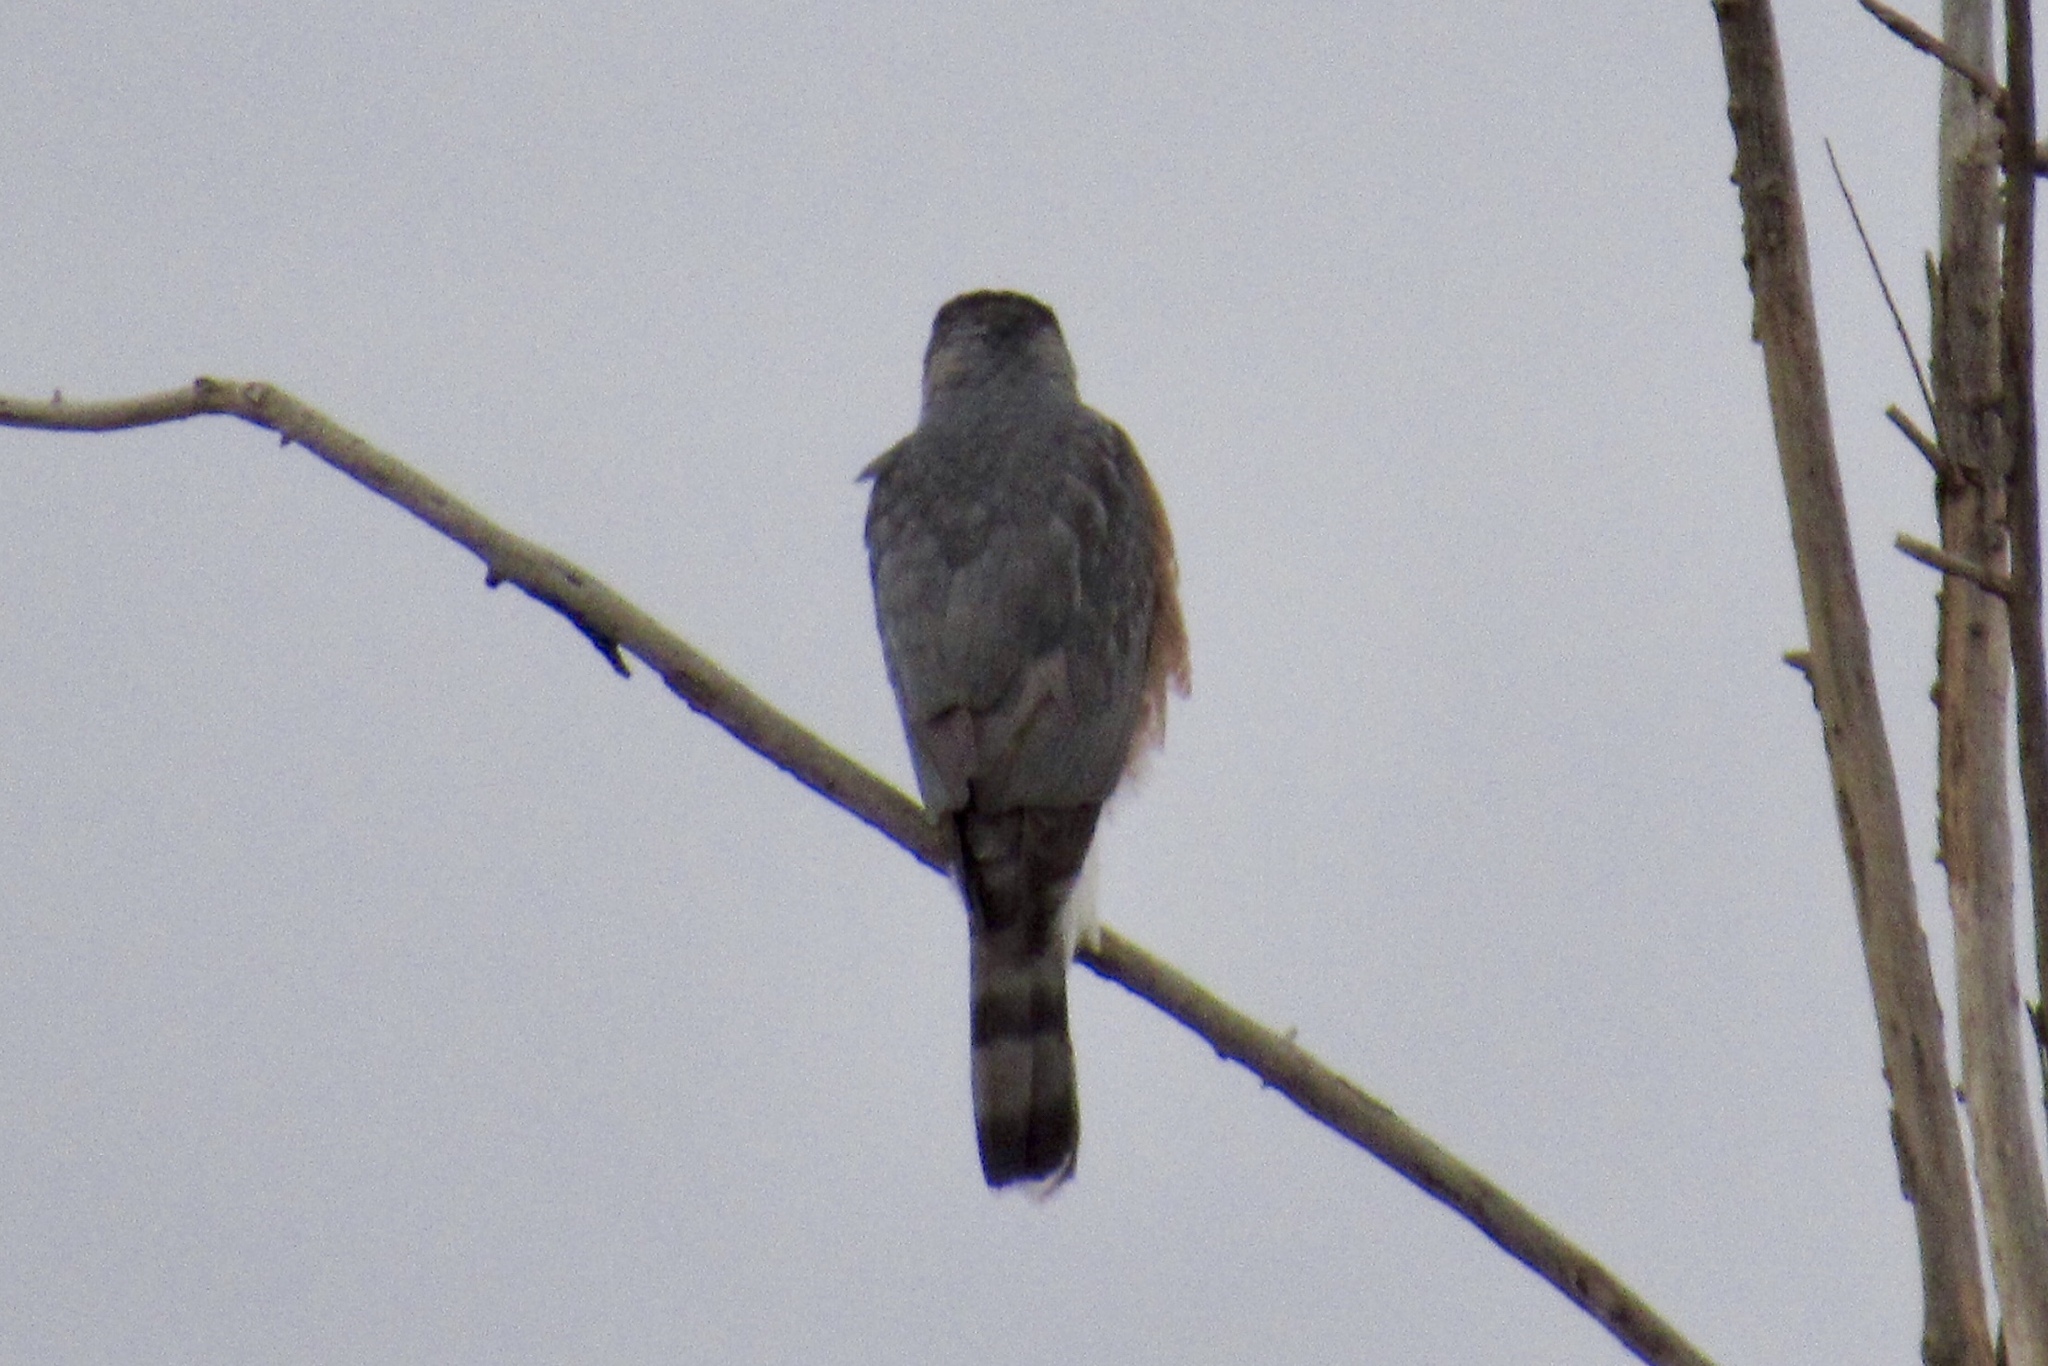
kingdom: Animalia
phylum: Chordata
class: Aves
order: Accipitriformes
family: Accipitridae
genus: Accipiter
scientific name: Accipiter cooperii
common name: Cooper's hawk
